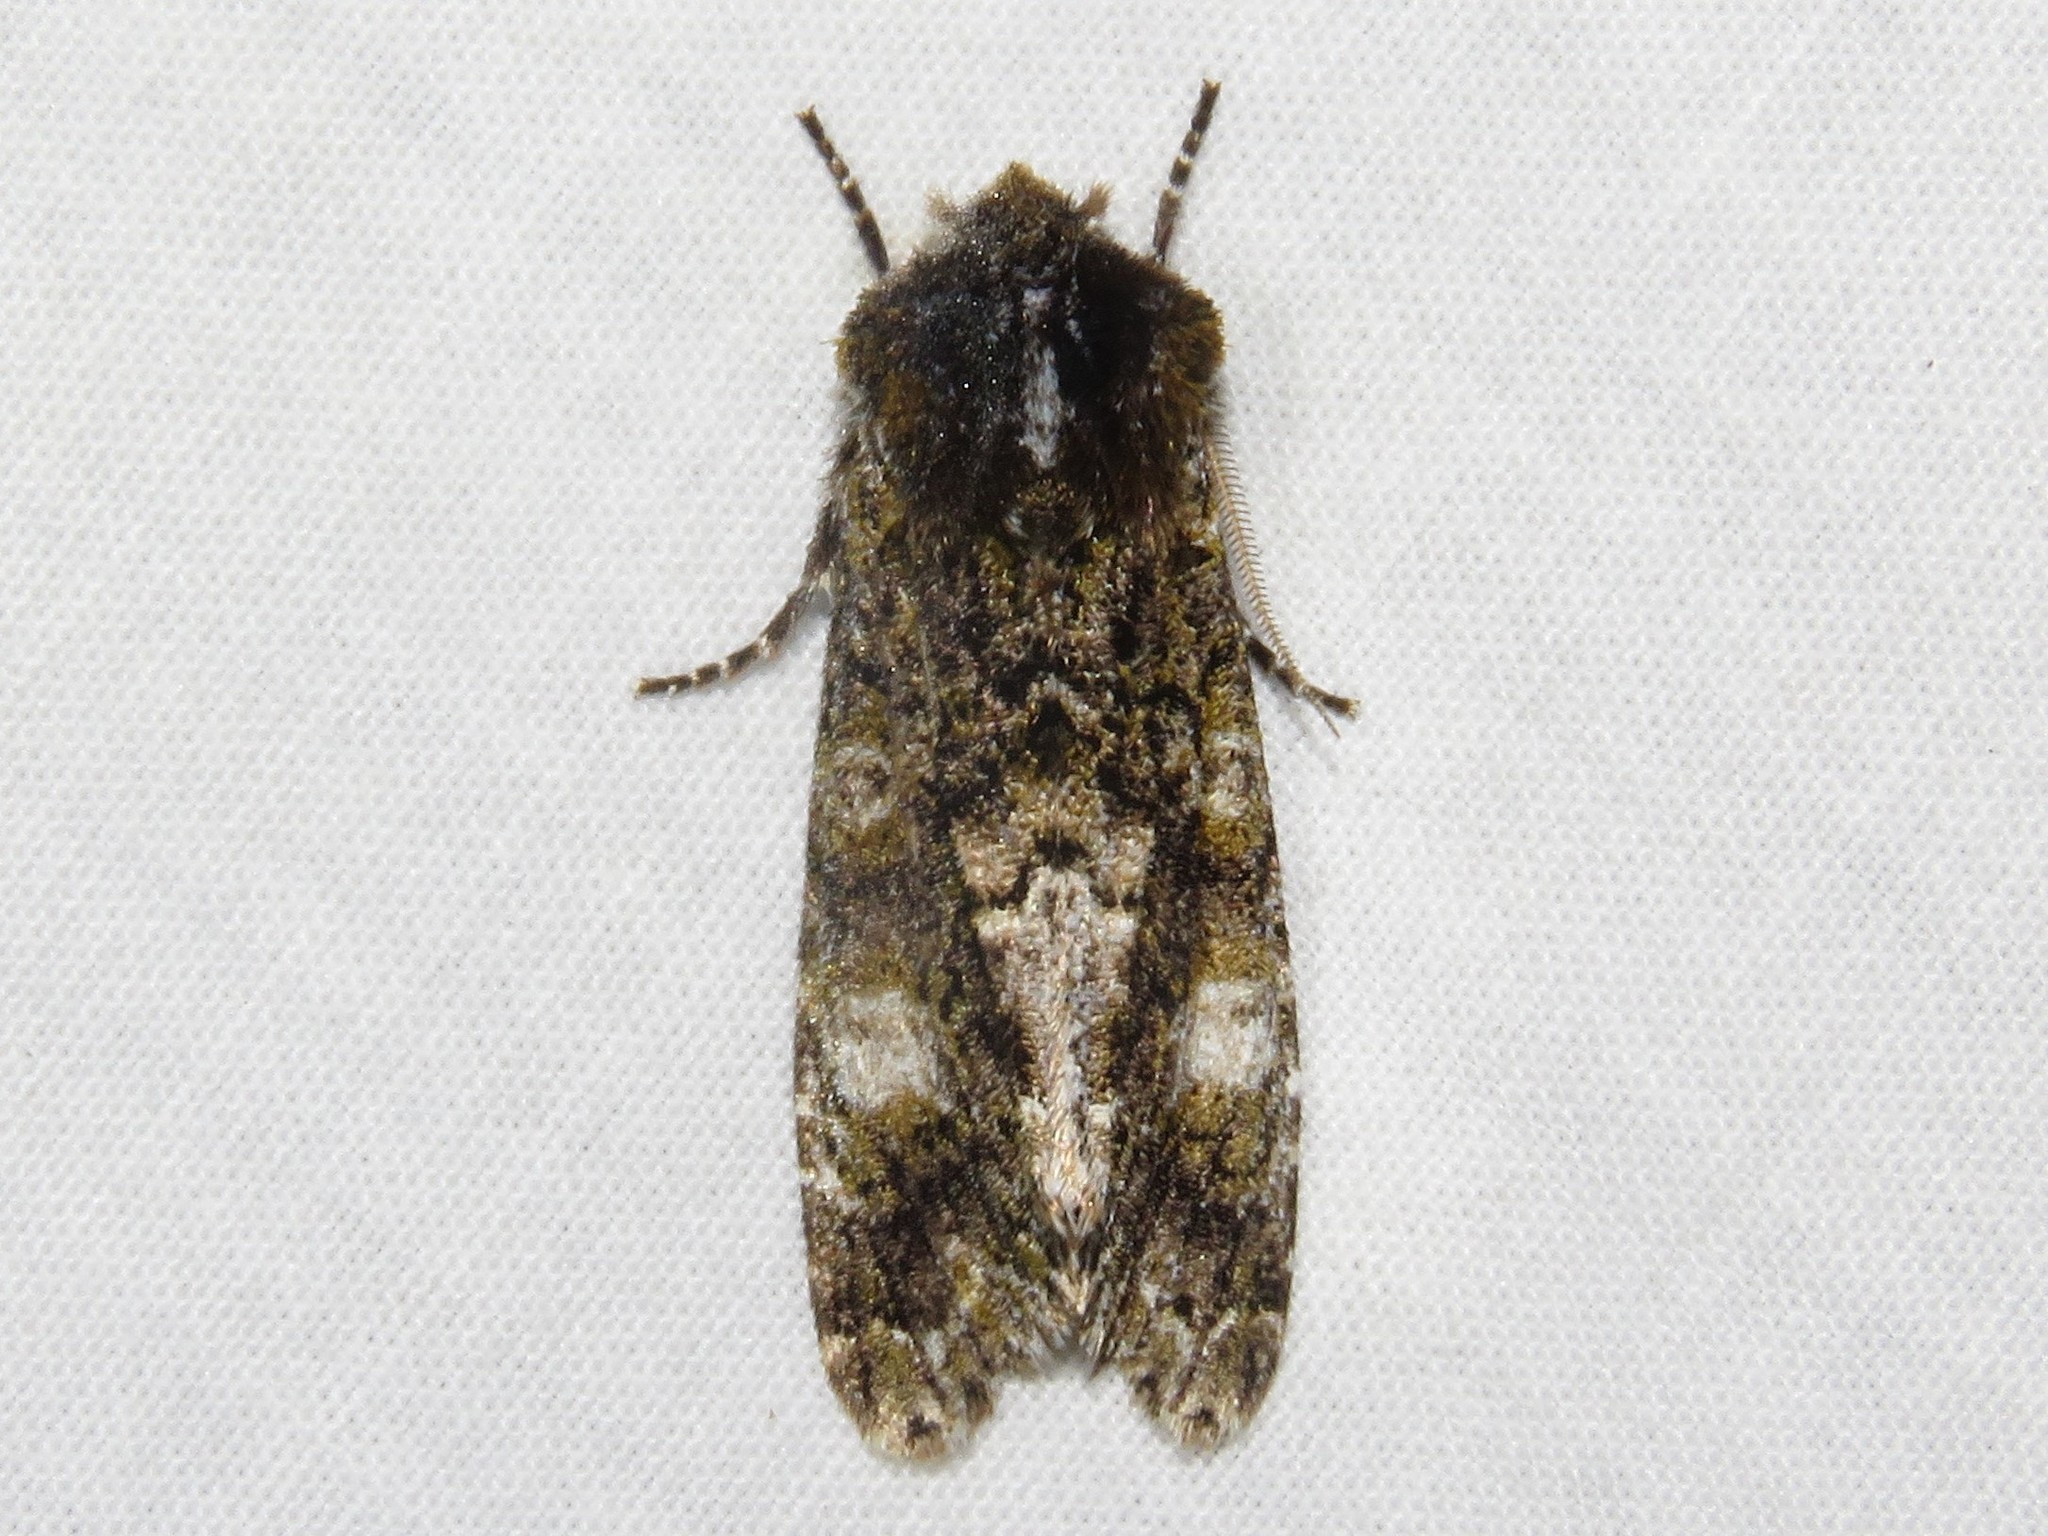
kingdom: Animalia
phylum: Arthropoda
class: Insecta
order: Lepidoptera
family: Noctuidae
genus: Psaphida
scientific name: Psaphida grotei
